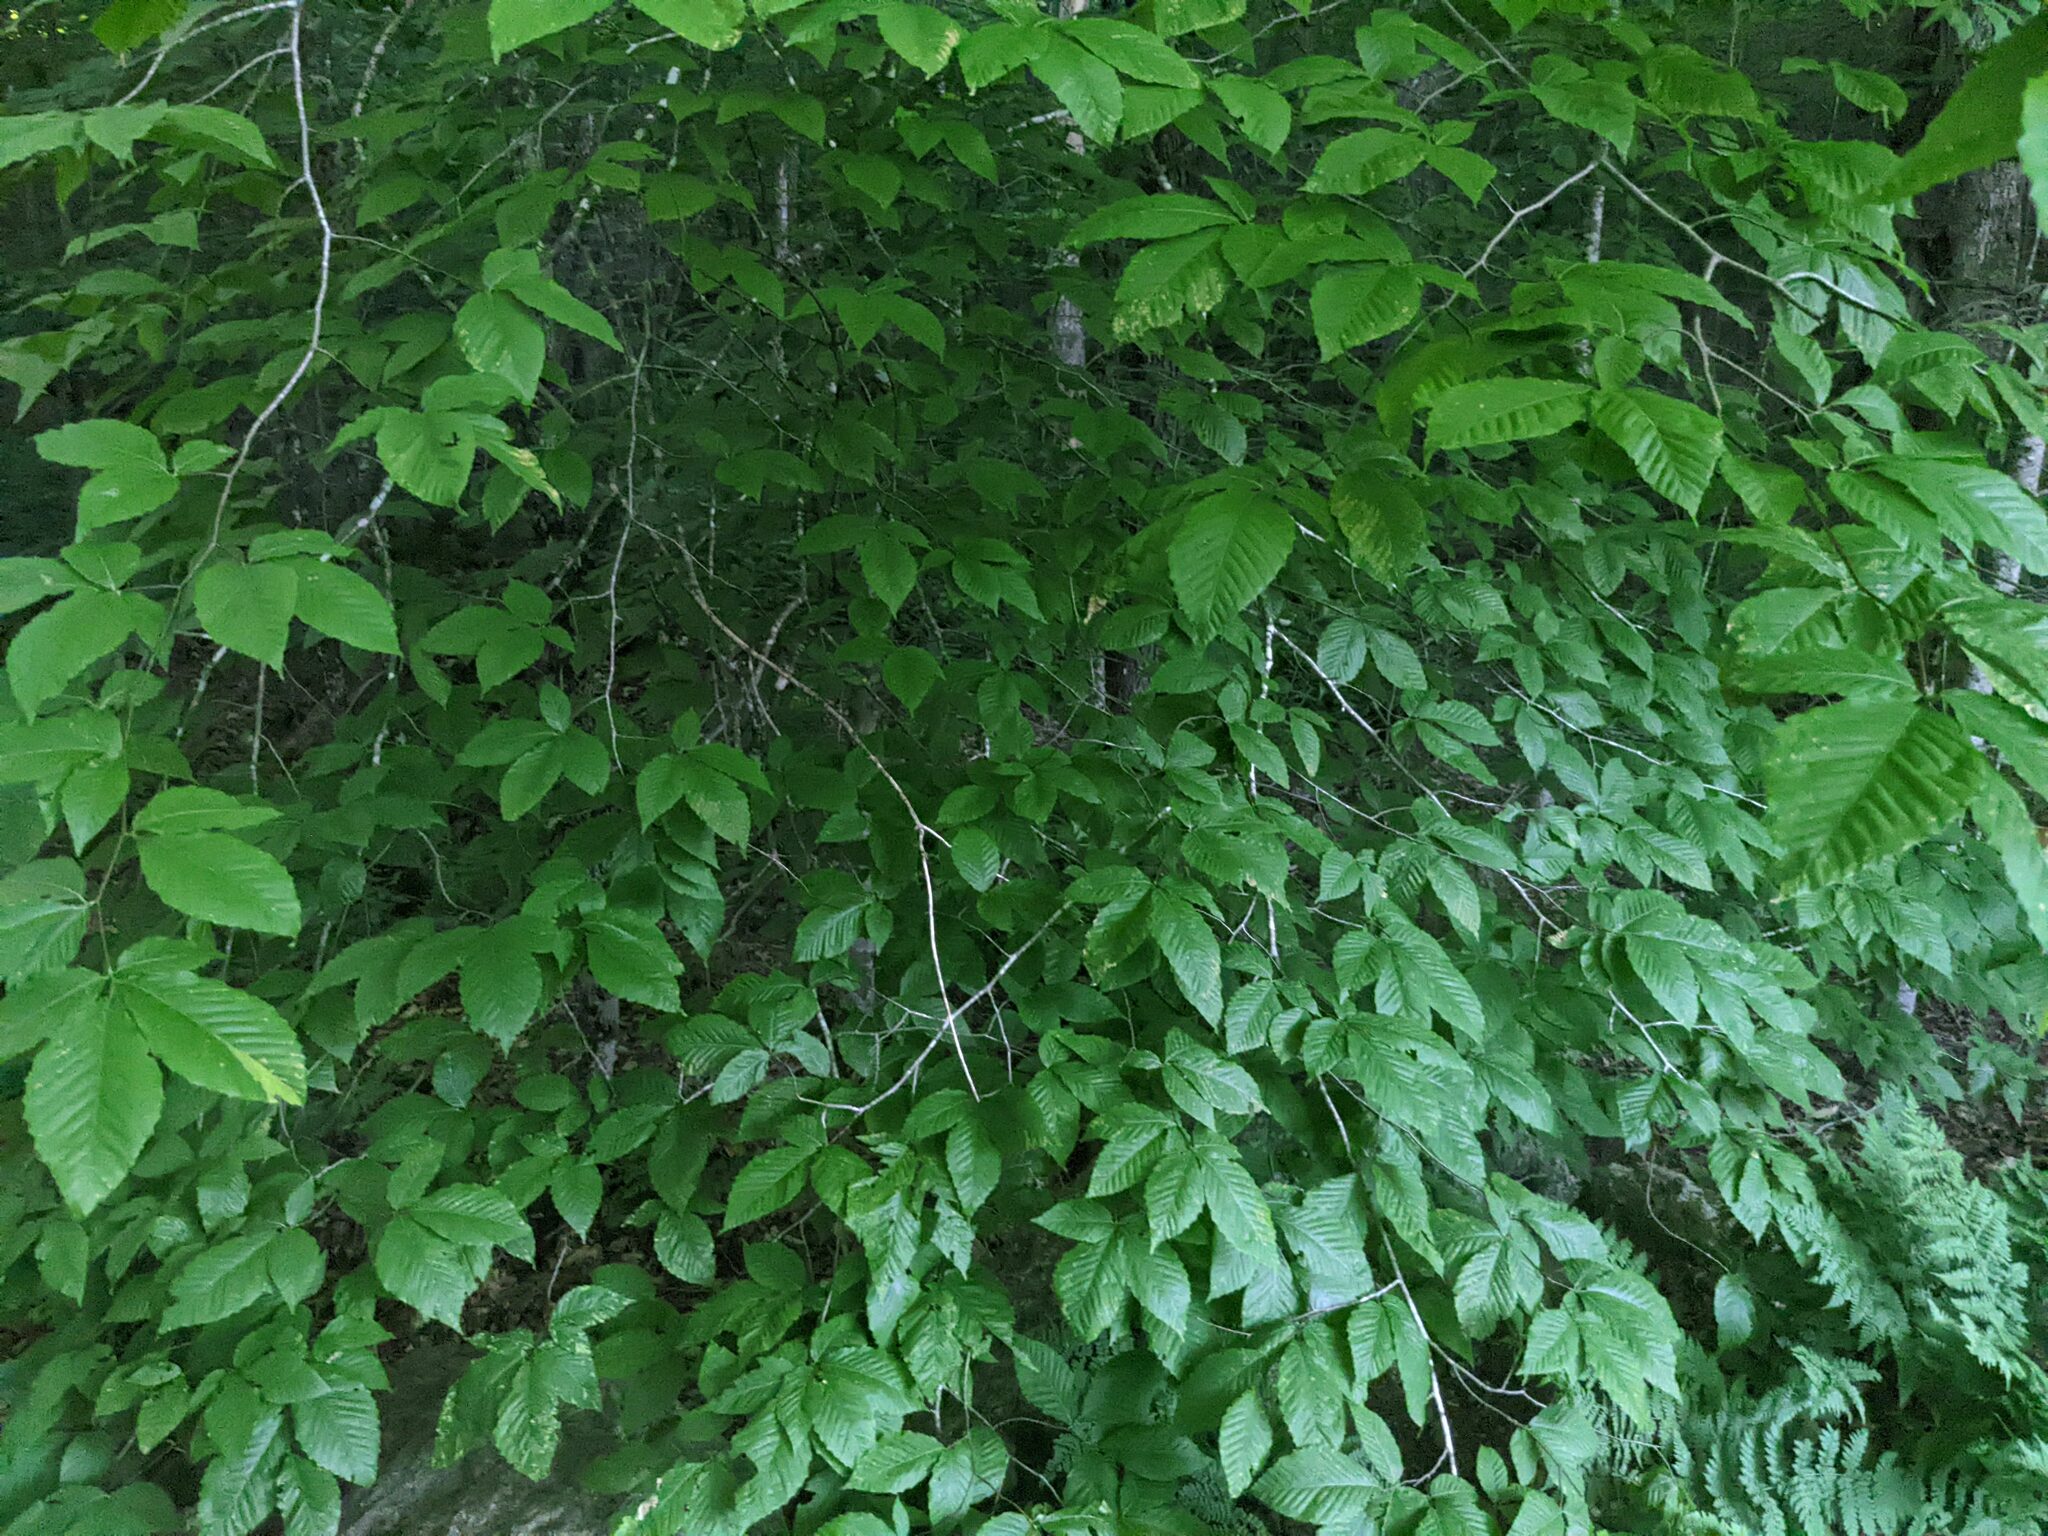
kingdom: Plantae
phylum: Tracheophyta
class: Magnoliopsida
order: Fagales
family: Fagaceae
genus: Fagus
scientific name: Fagus grandifolia
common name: American beech
